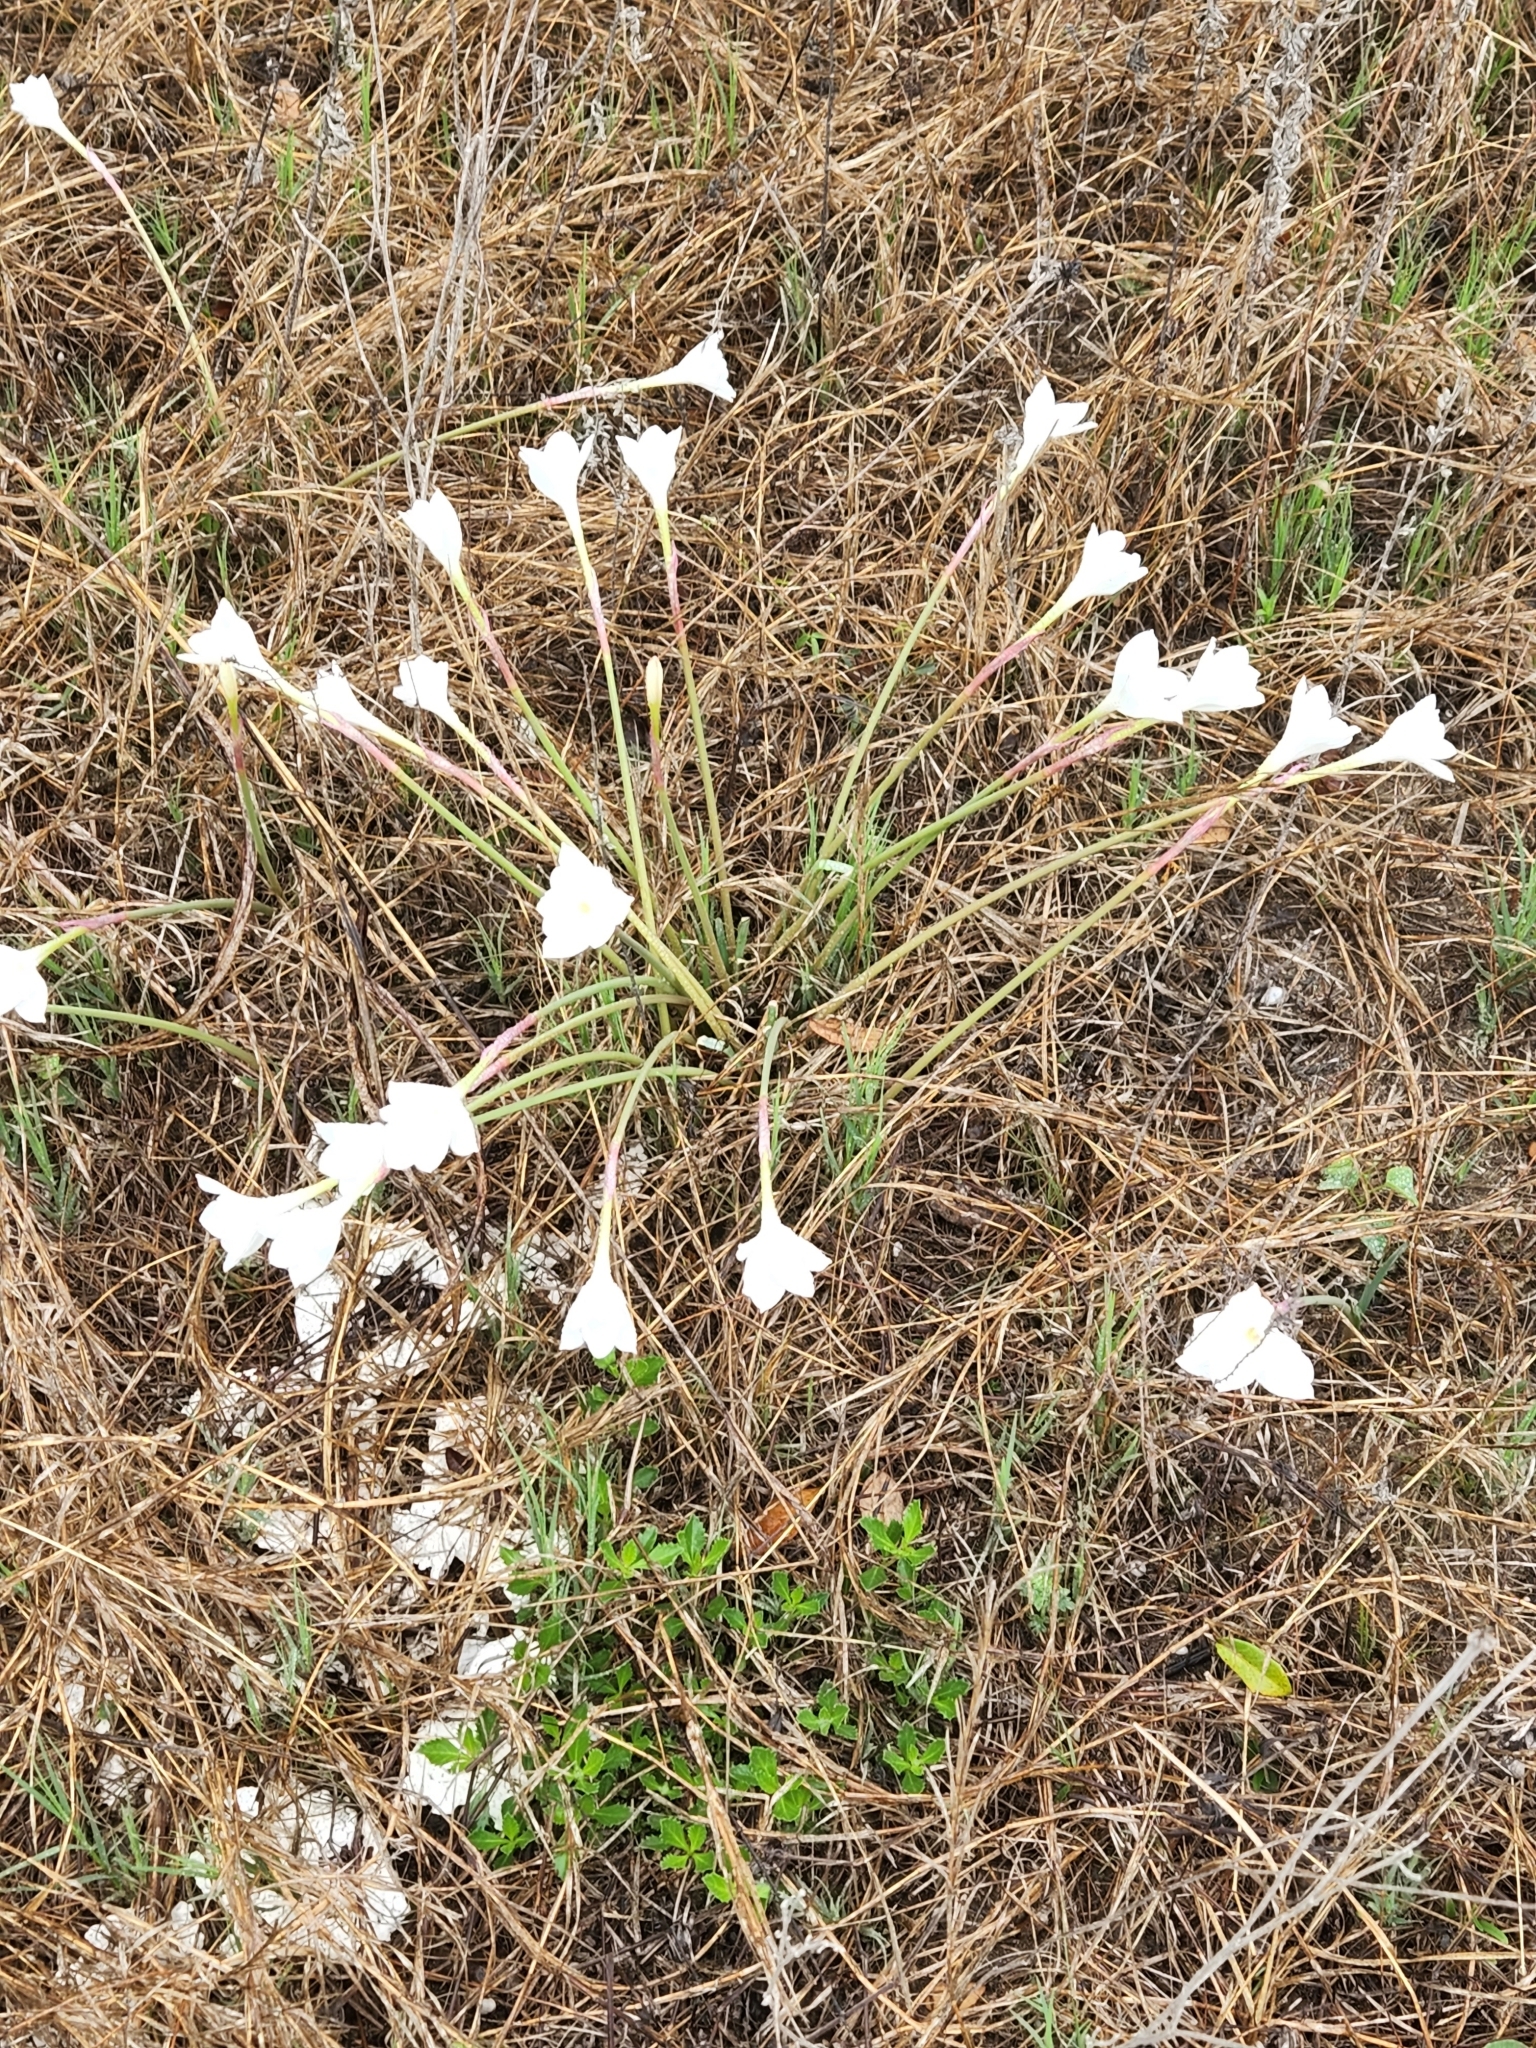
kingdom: Plantae
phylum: Tracheophyta
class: Liliopsida
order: Asparagales
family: Amaryllidaceae
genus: Zephyranthes
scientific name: Zephyranthes drummondii
